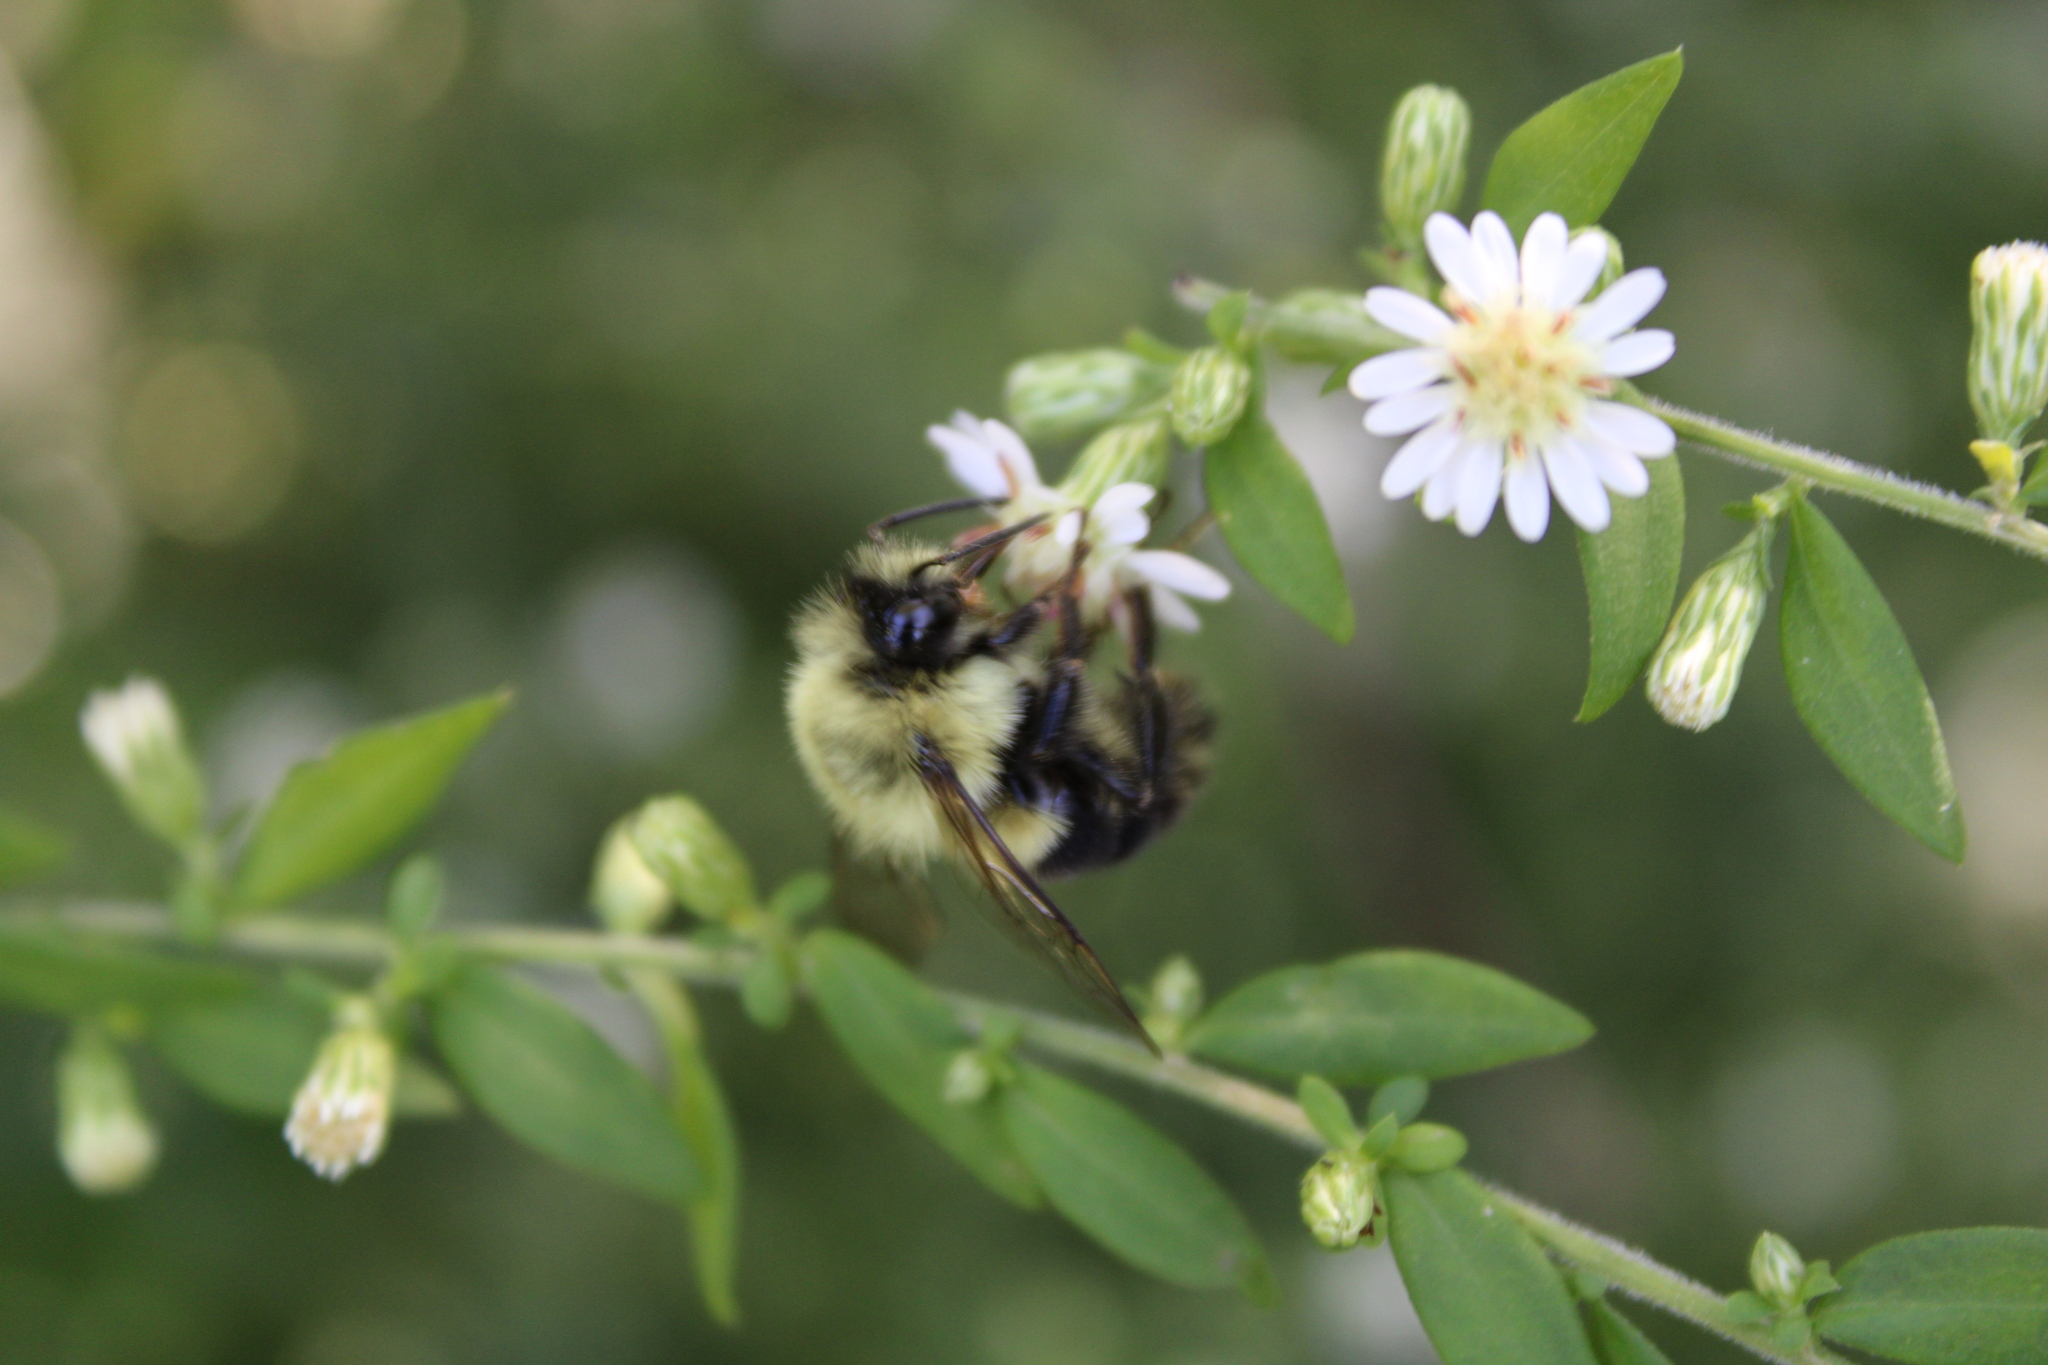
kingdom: Animalia
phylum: Arthropoda
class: Insecta
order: Hymenoptera
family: Apidae
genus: Bombus
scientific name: Bombus impatiens
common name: Common eastern bumble bee
